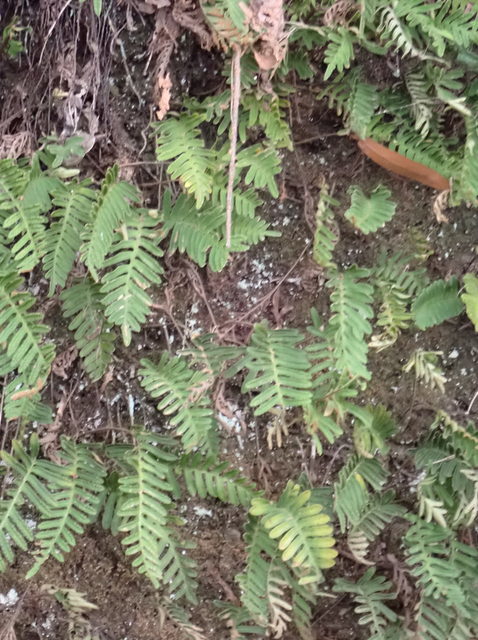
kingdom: Plantae
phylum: Tracheophyta
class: Polypodiopsida
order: Polypodiales
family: Polypodiaceae
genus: Pleopeltis
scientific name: Pleopeltis michauxiana
